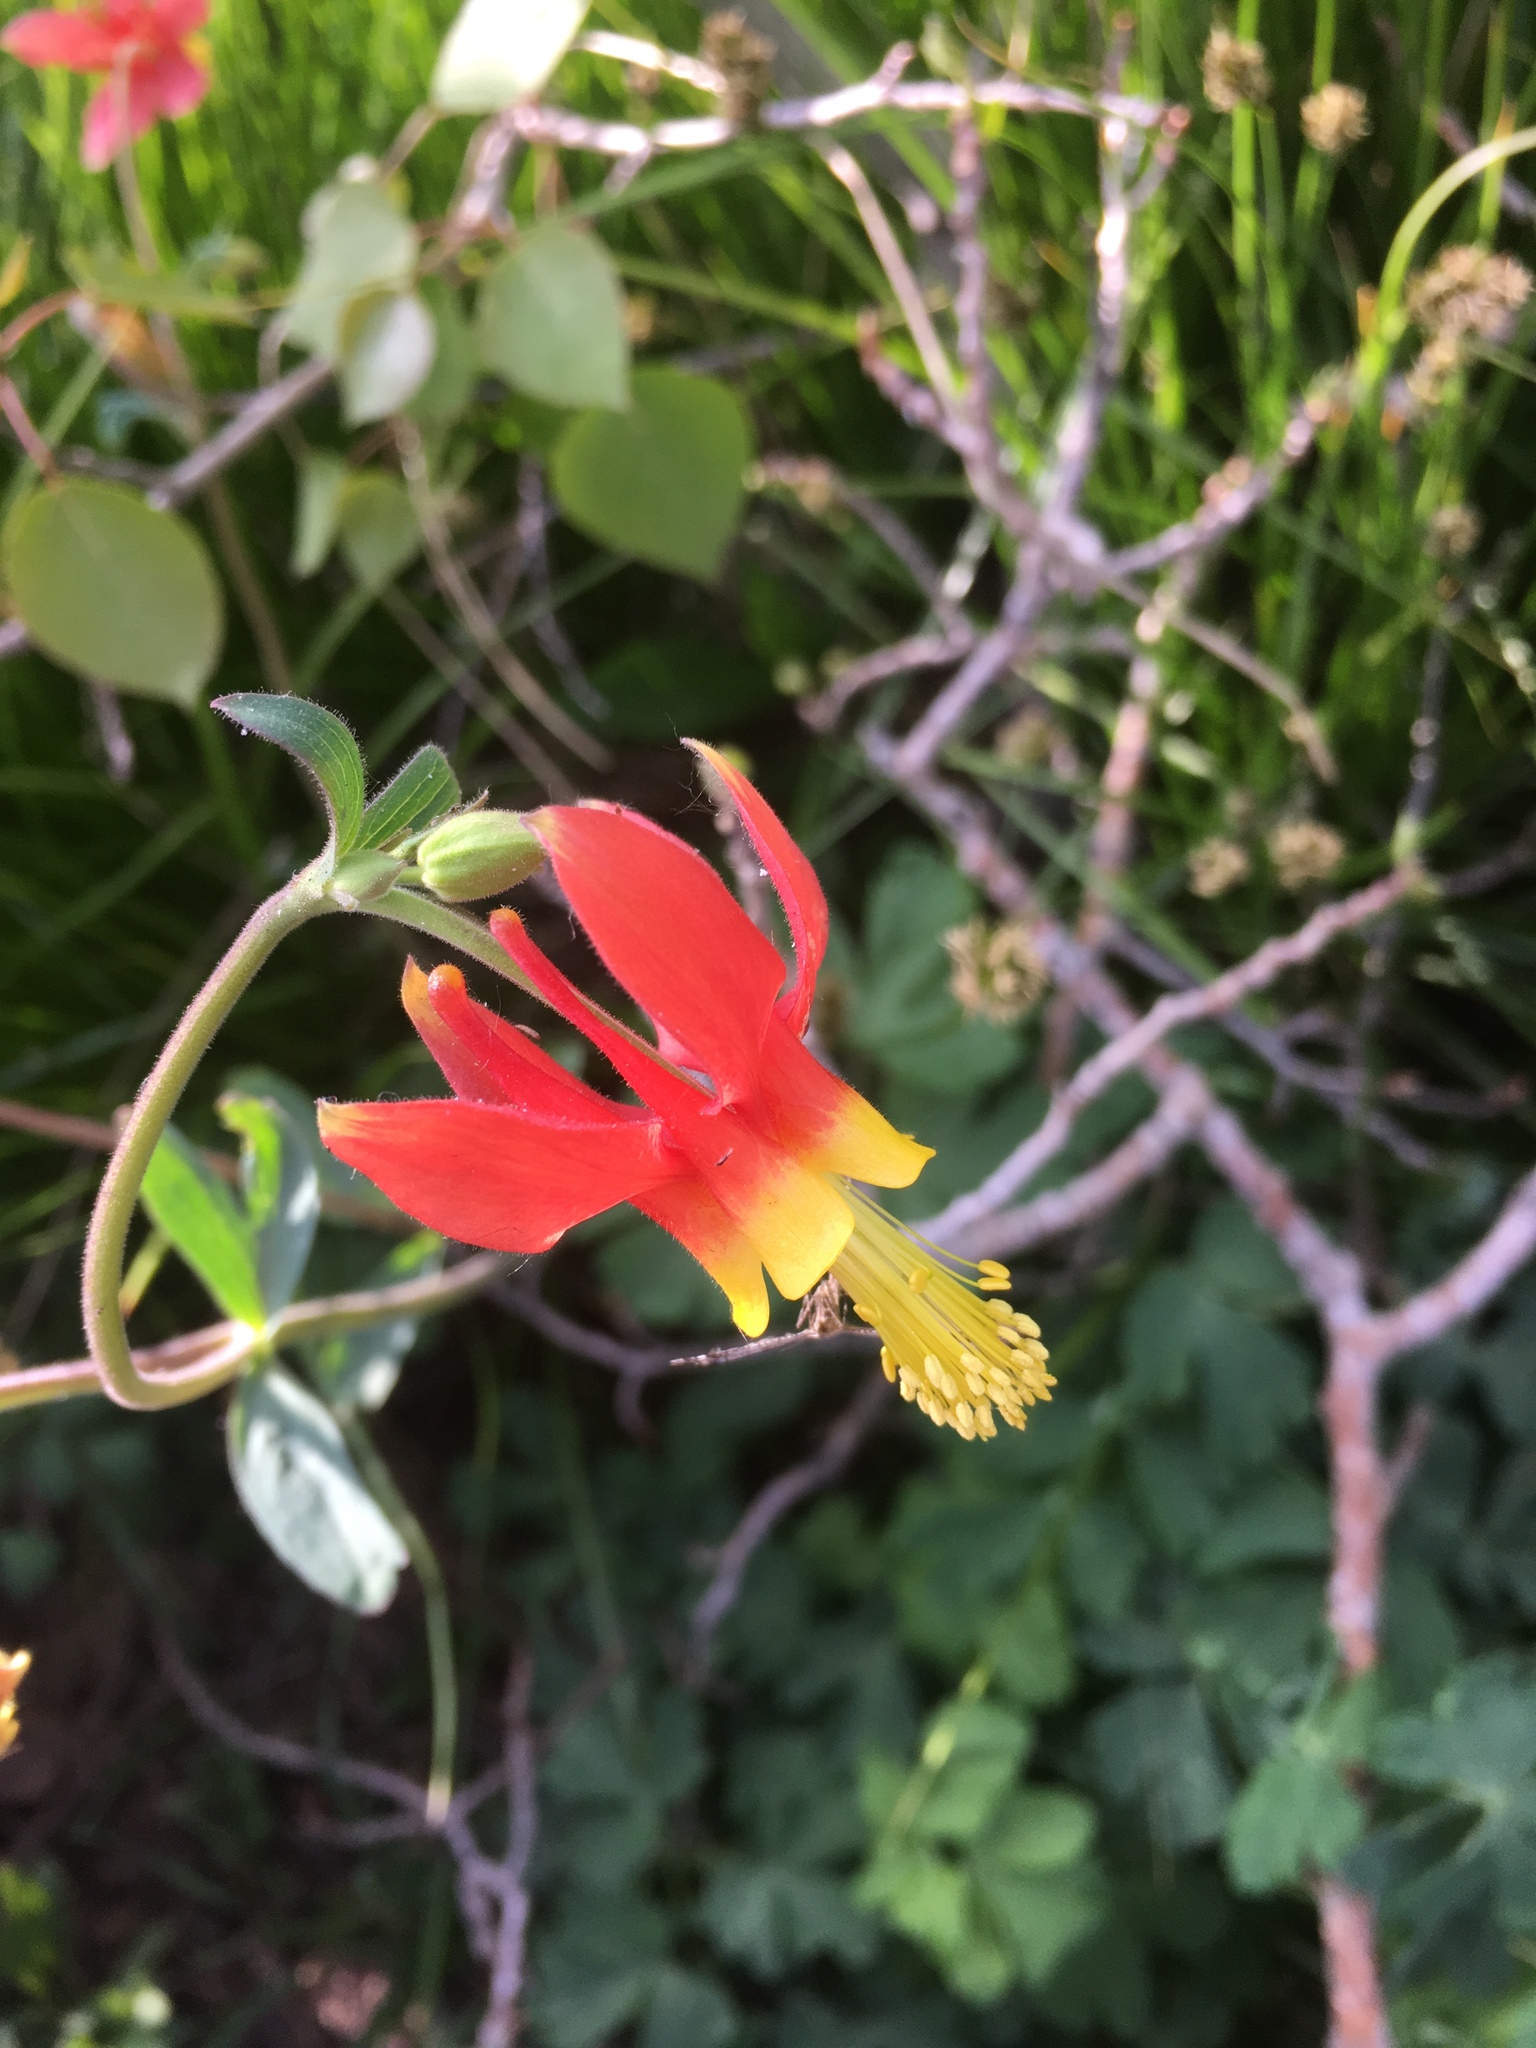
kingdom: Plantae
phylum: Tracheophyta
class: Magnoliopsida
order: Ranunculales
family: Ranunculaceae
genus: Aquilegia
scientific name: Aquilegia formosa
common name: Sitka columbine
